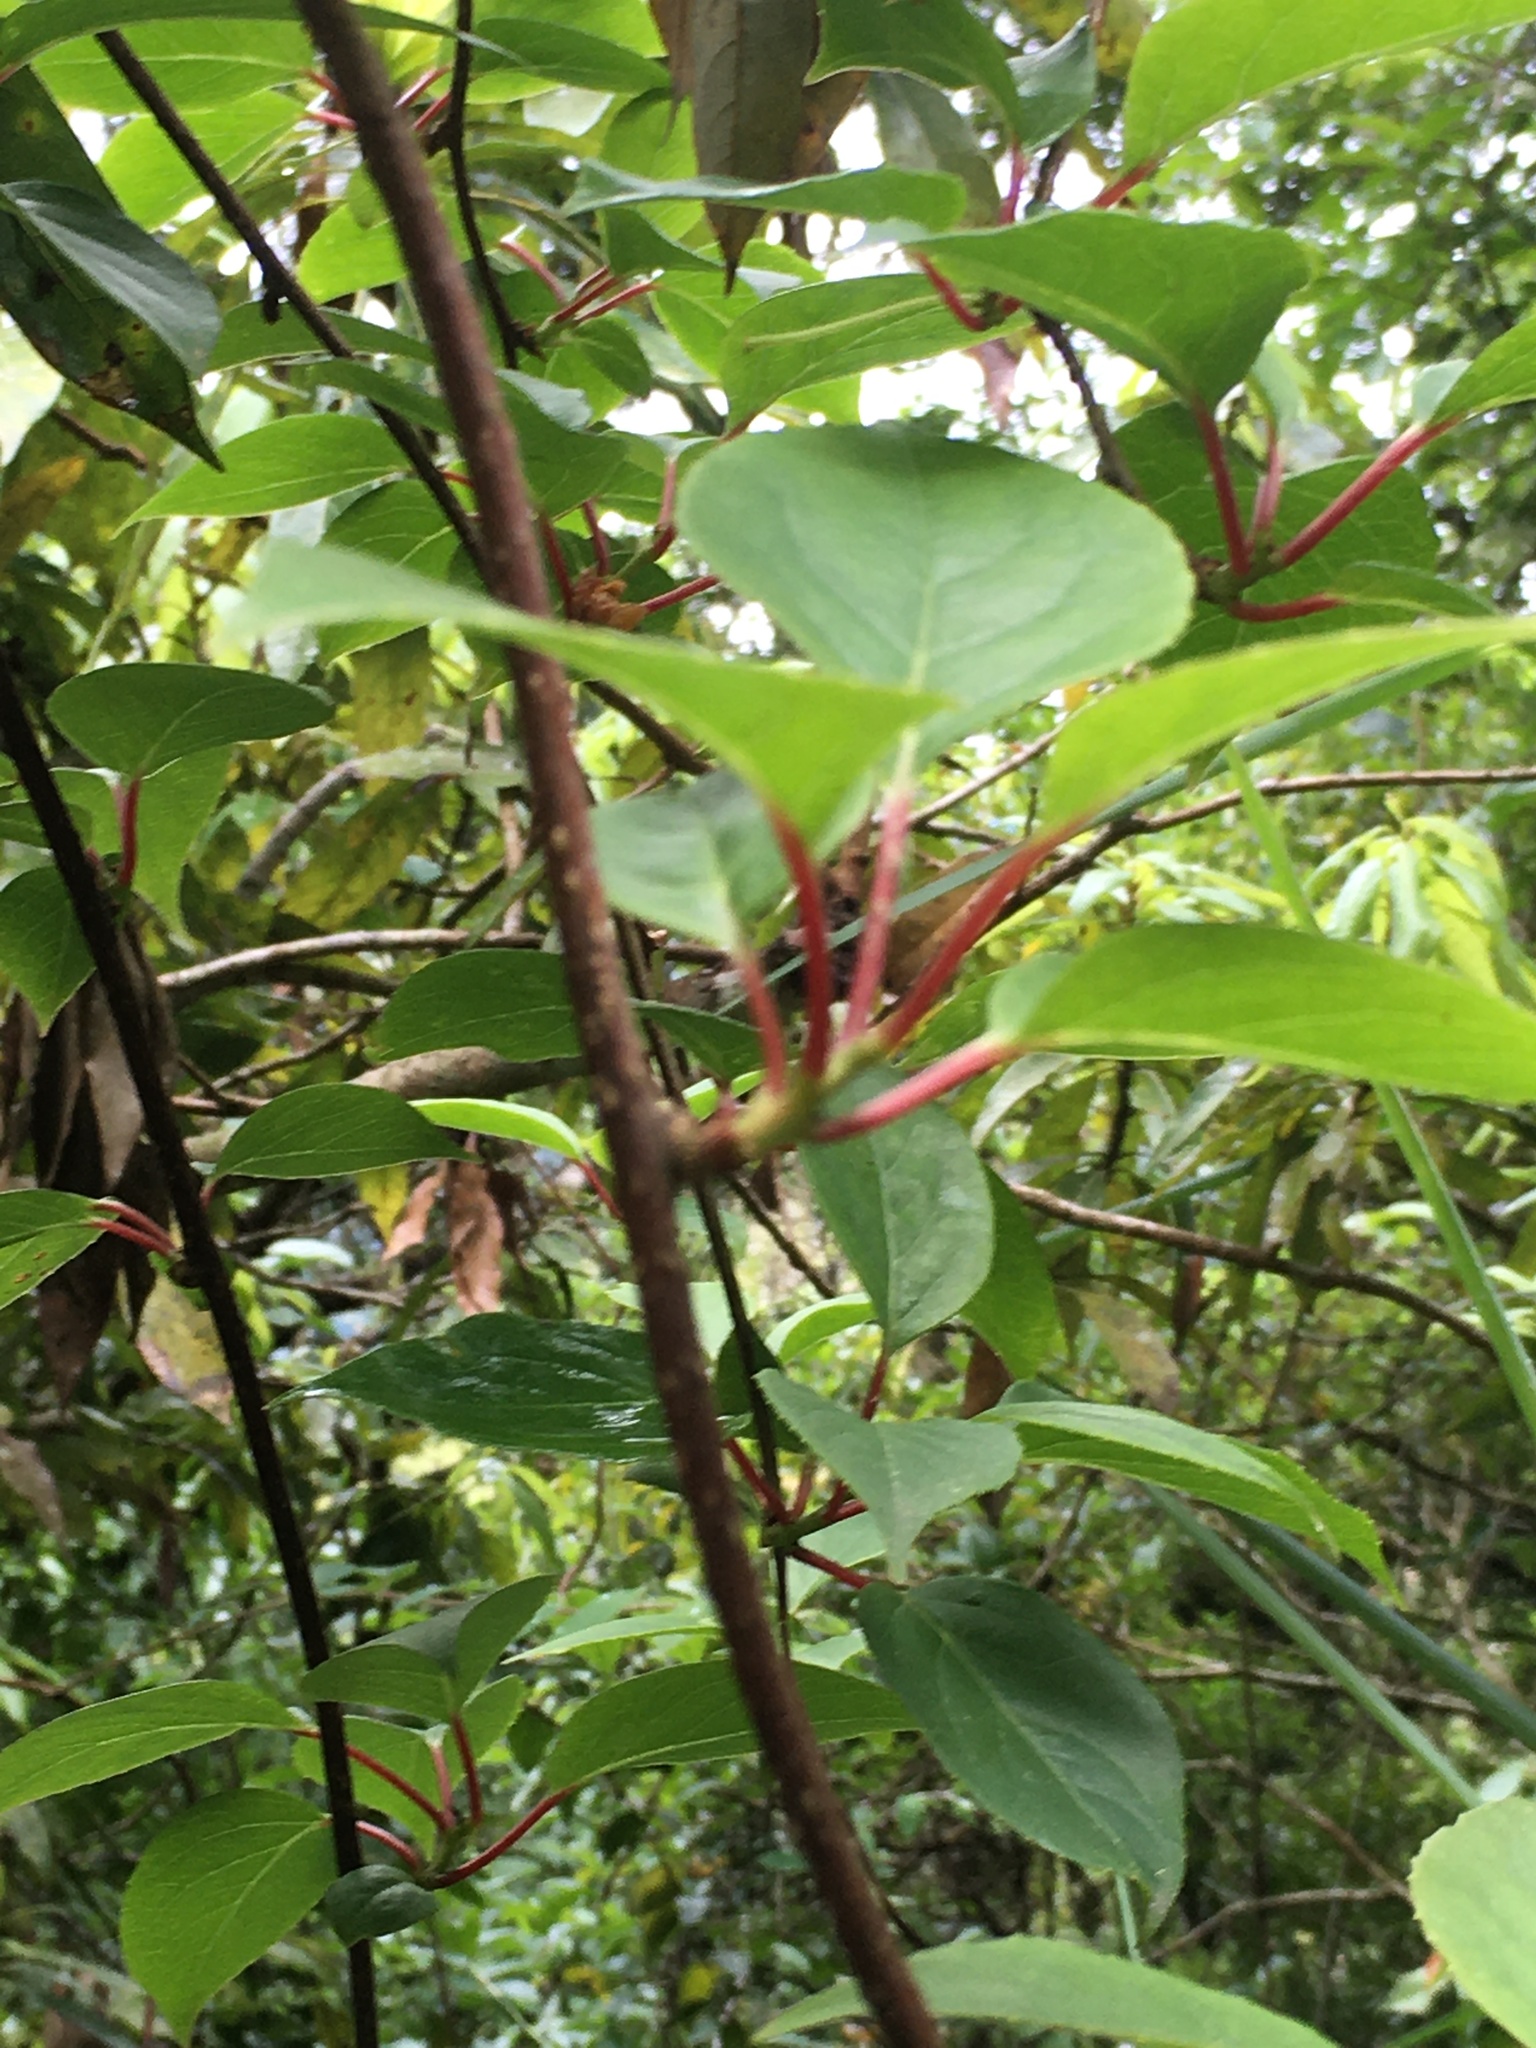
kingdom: Plantae
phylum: Tracheophyta
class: Magnoliopsida
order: Austrobaileyales
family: Schisandraceae
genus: Schisandra
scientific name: Schisandra arisanensis
